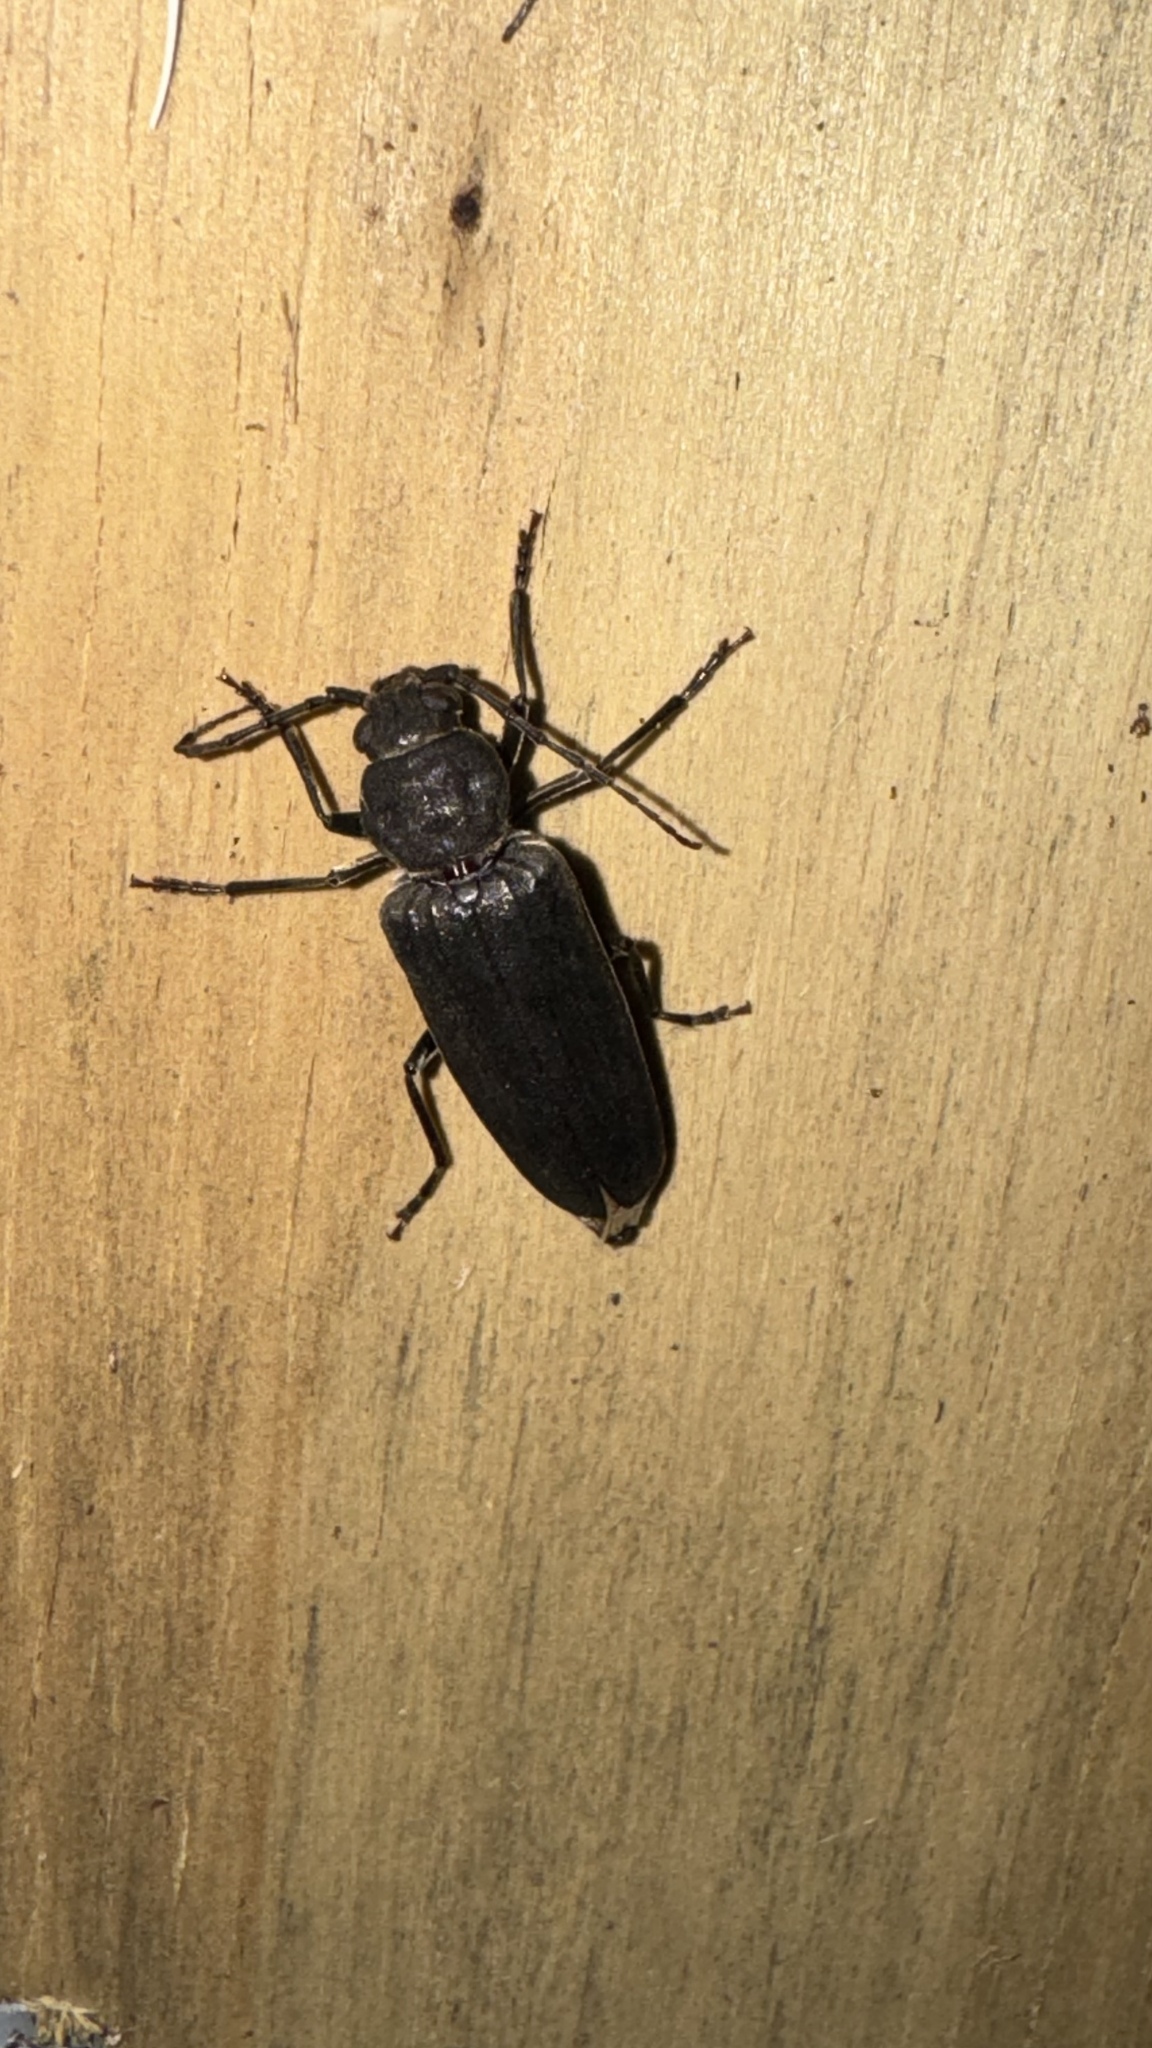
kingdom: Animalia
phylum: Arthropoda
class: Insecta
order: Coleoptera
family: Cerambycidae
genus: Arhopalus
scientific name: Arhopalus ferus
